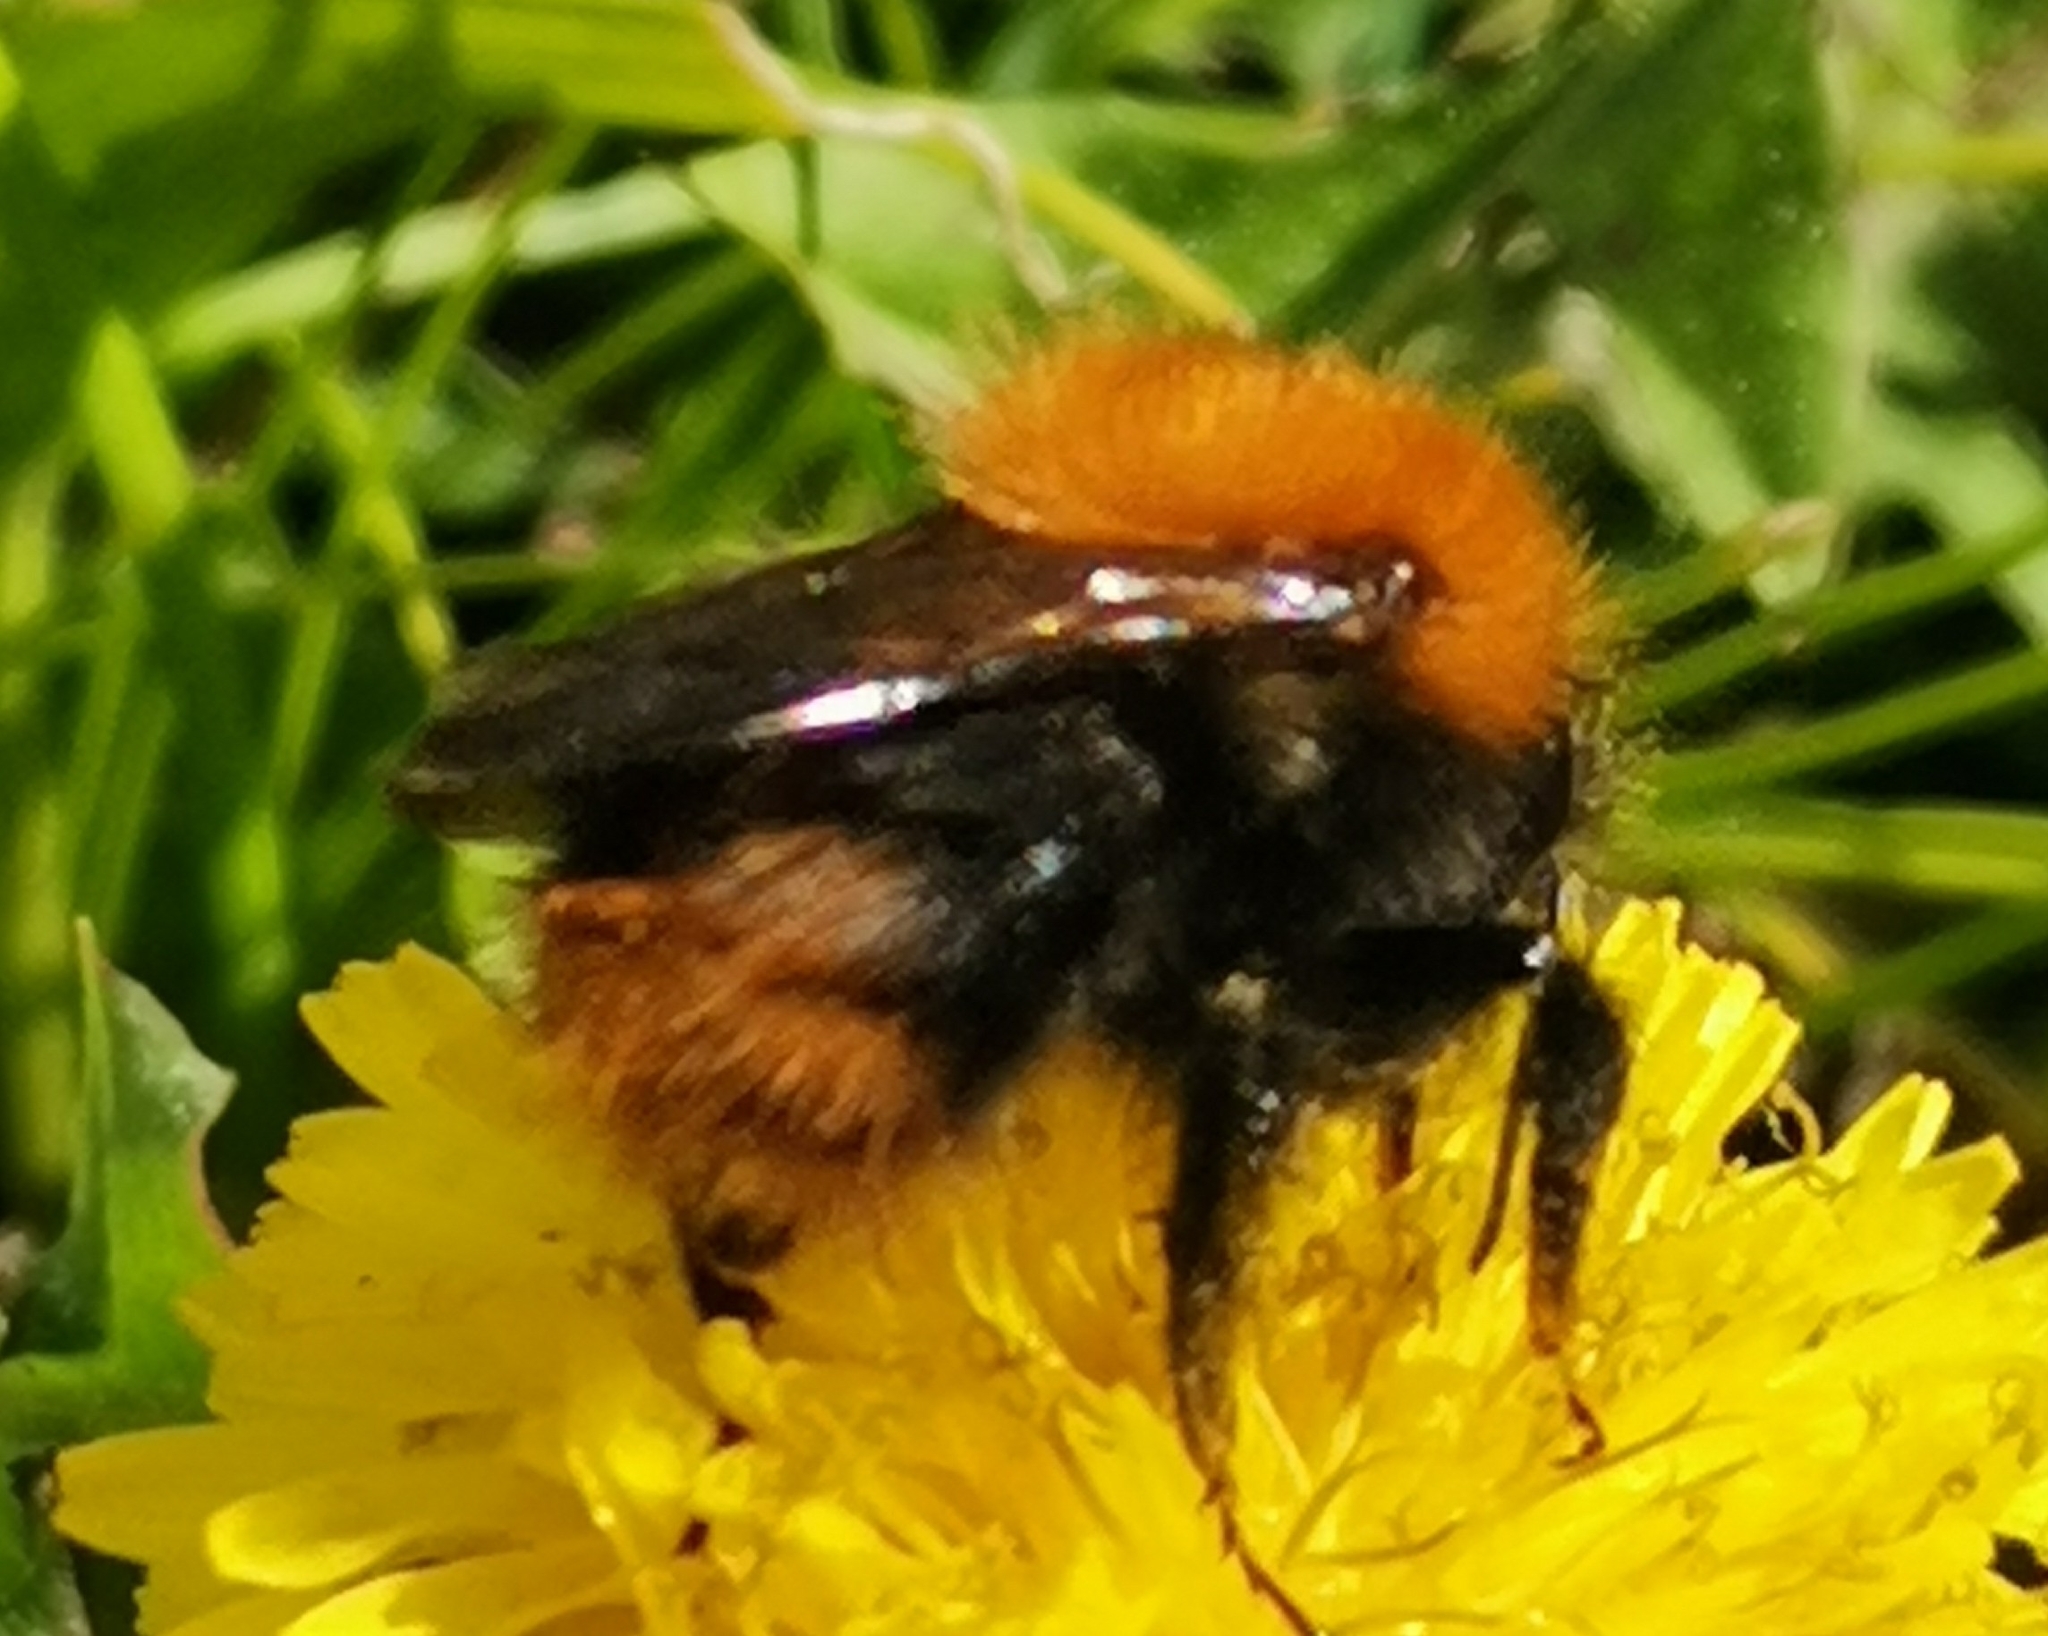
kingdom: Animalia
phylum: Arthropoda
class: Insecta
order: Hymenoptera
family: Apidae
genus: Bombus
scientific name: Bombus pascuorum
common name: Common carder bee
